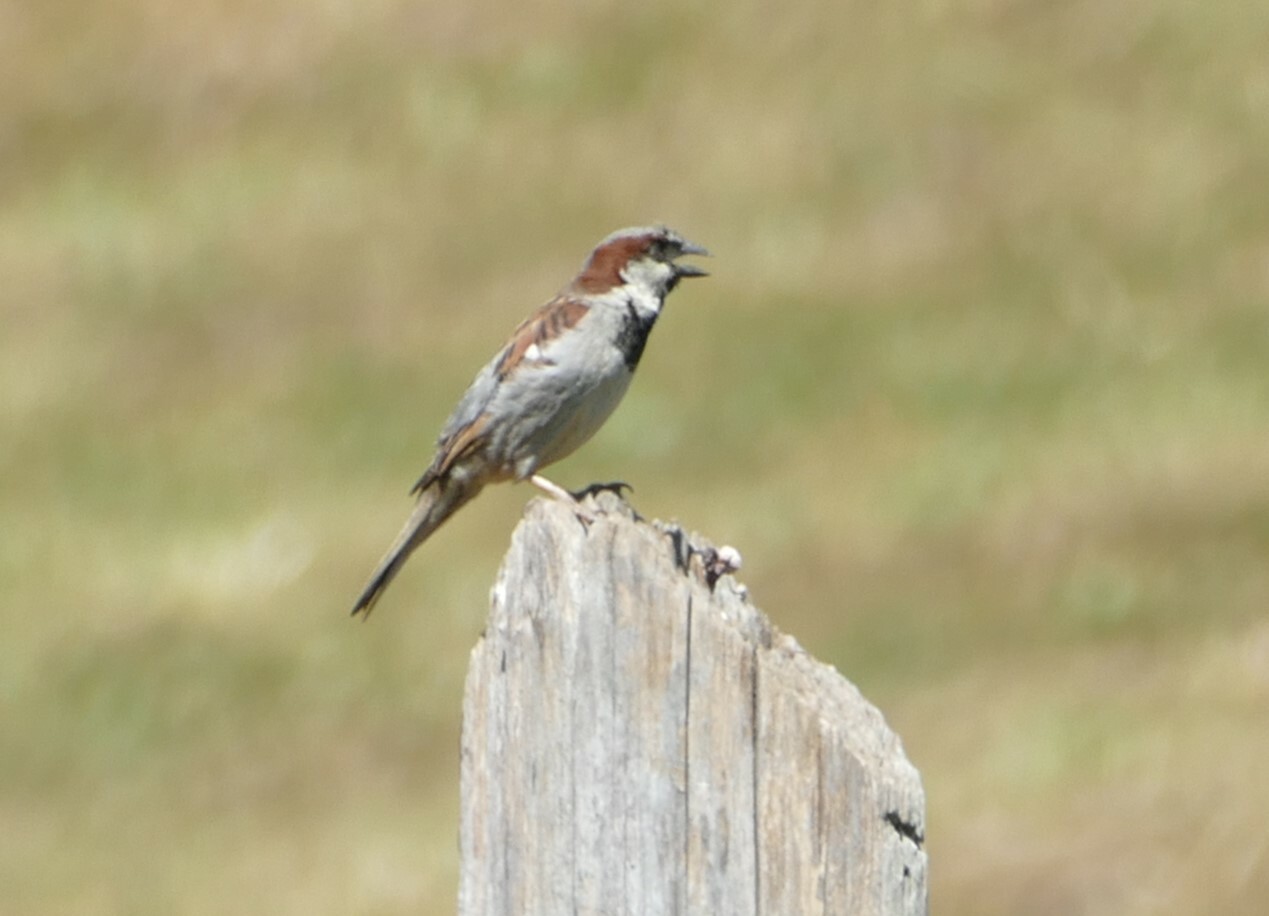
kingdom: Animalia
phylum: Chordata
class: Aves
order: Passeriformes
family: Passeridae
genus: Passer
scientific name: Passer domesticus
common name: House sparrow
